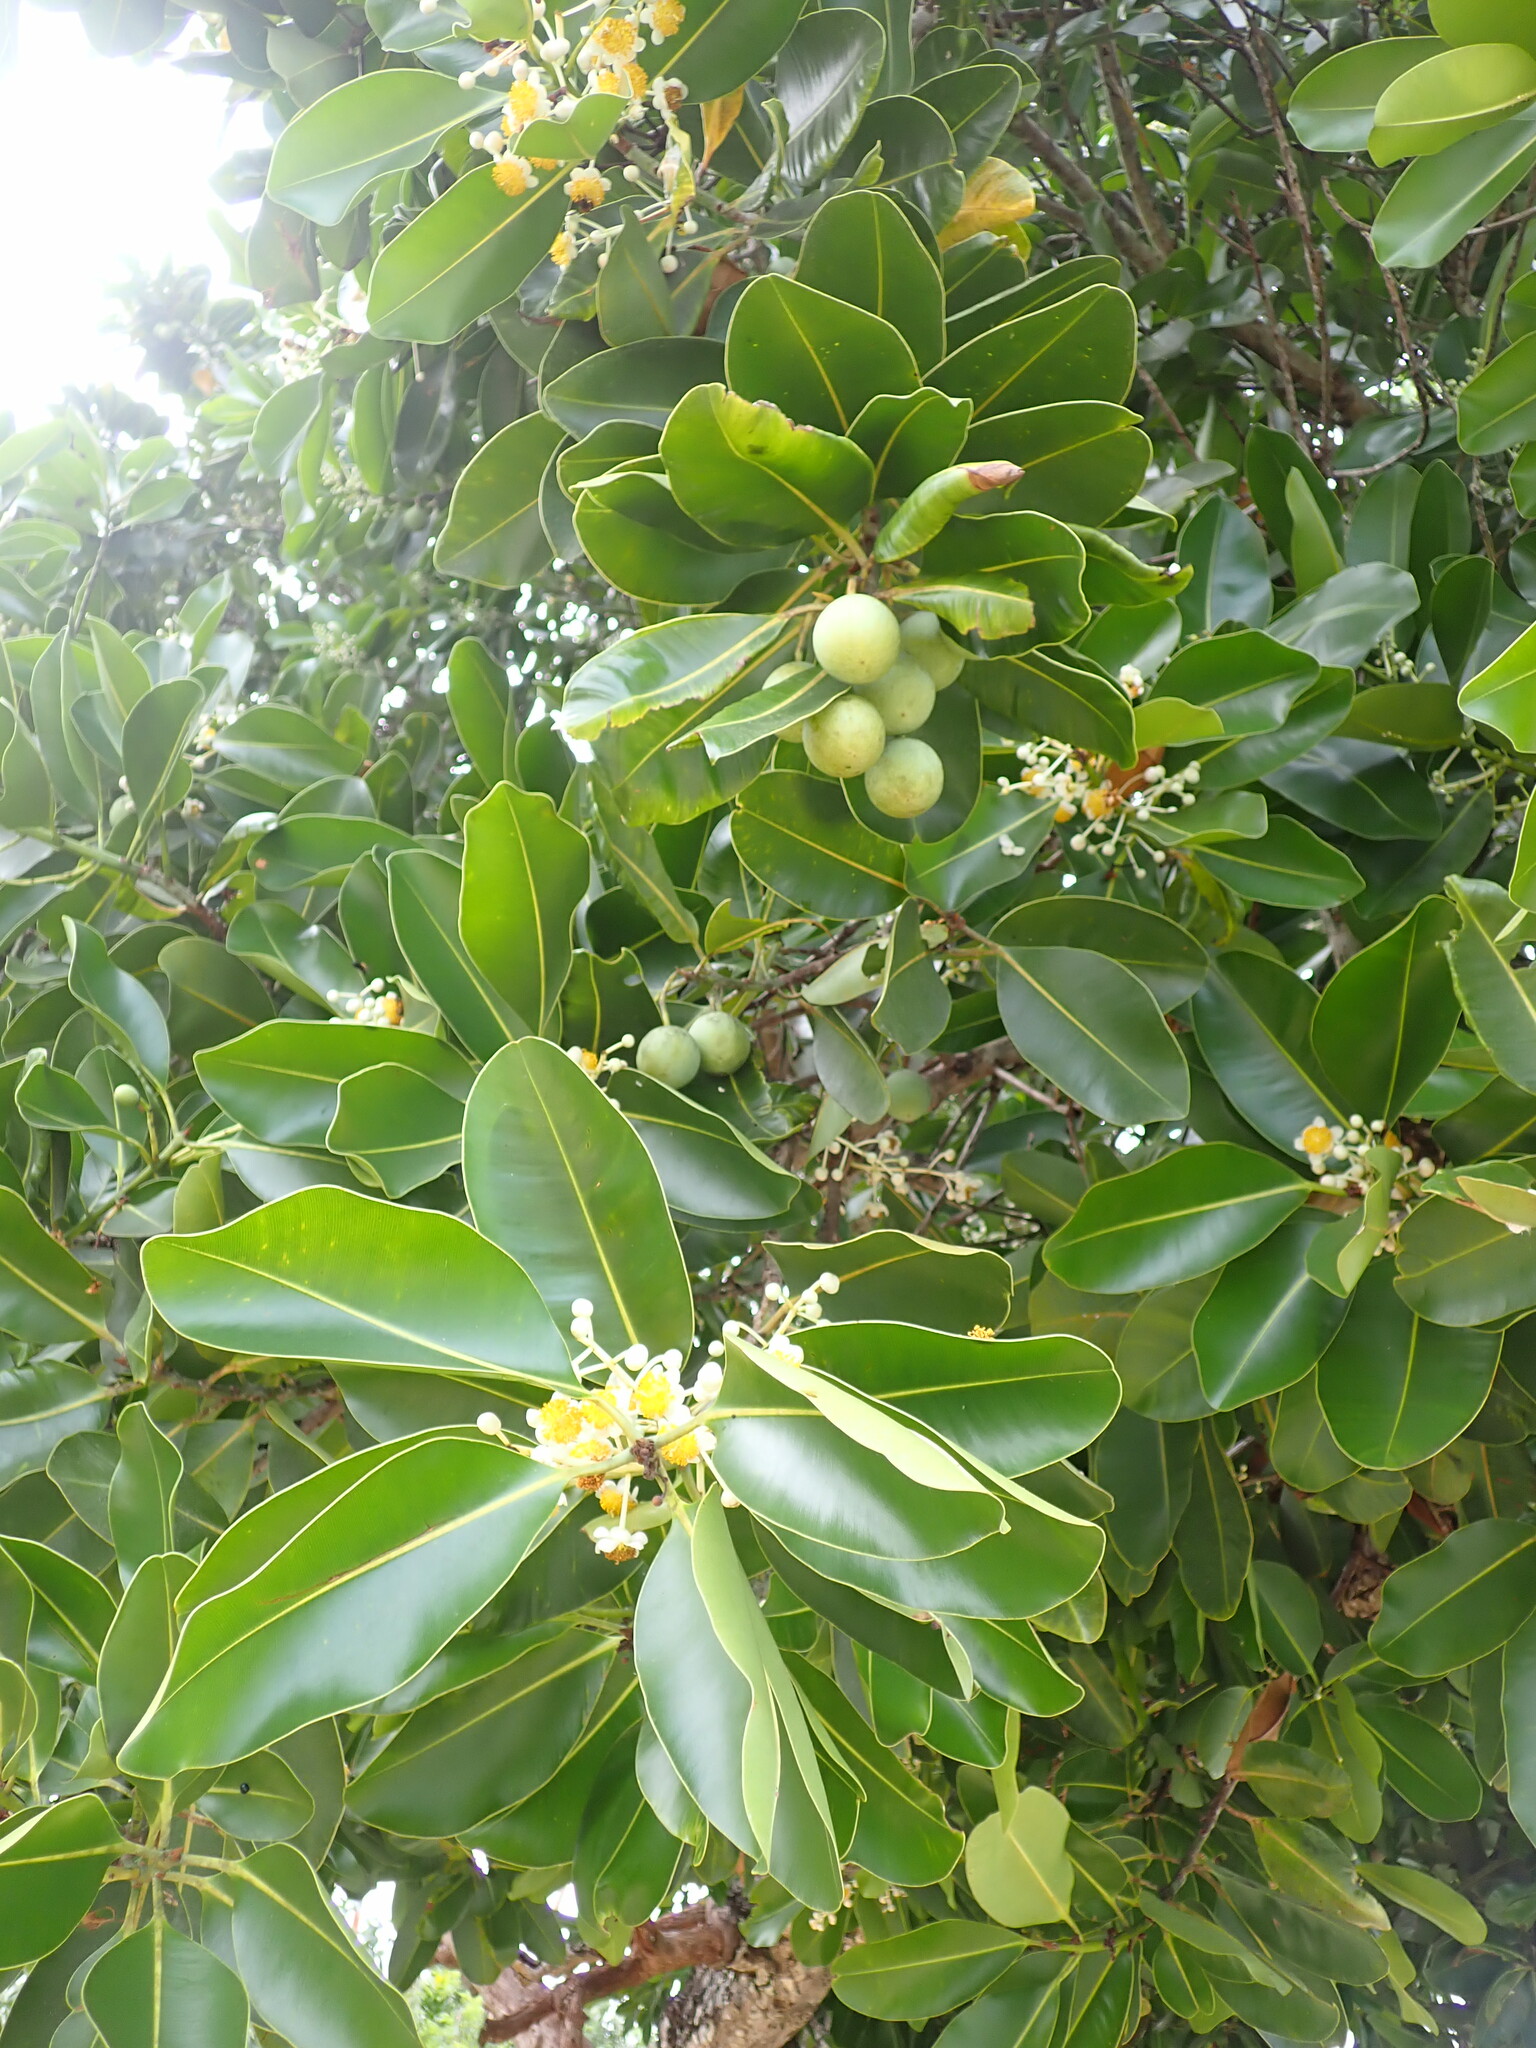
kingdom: Plantae
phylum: Tracheophyta
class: Magnoliopsida
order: Malpighiales
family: Calophyllaceae
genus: Calophyllum
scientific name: Calophyllum inophyllum
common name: Alexandrian laurel
